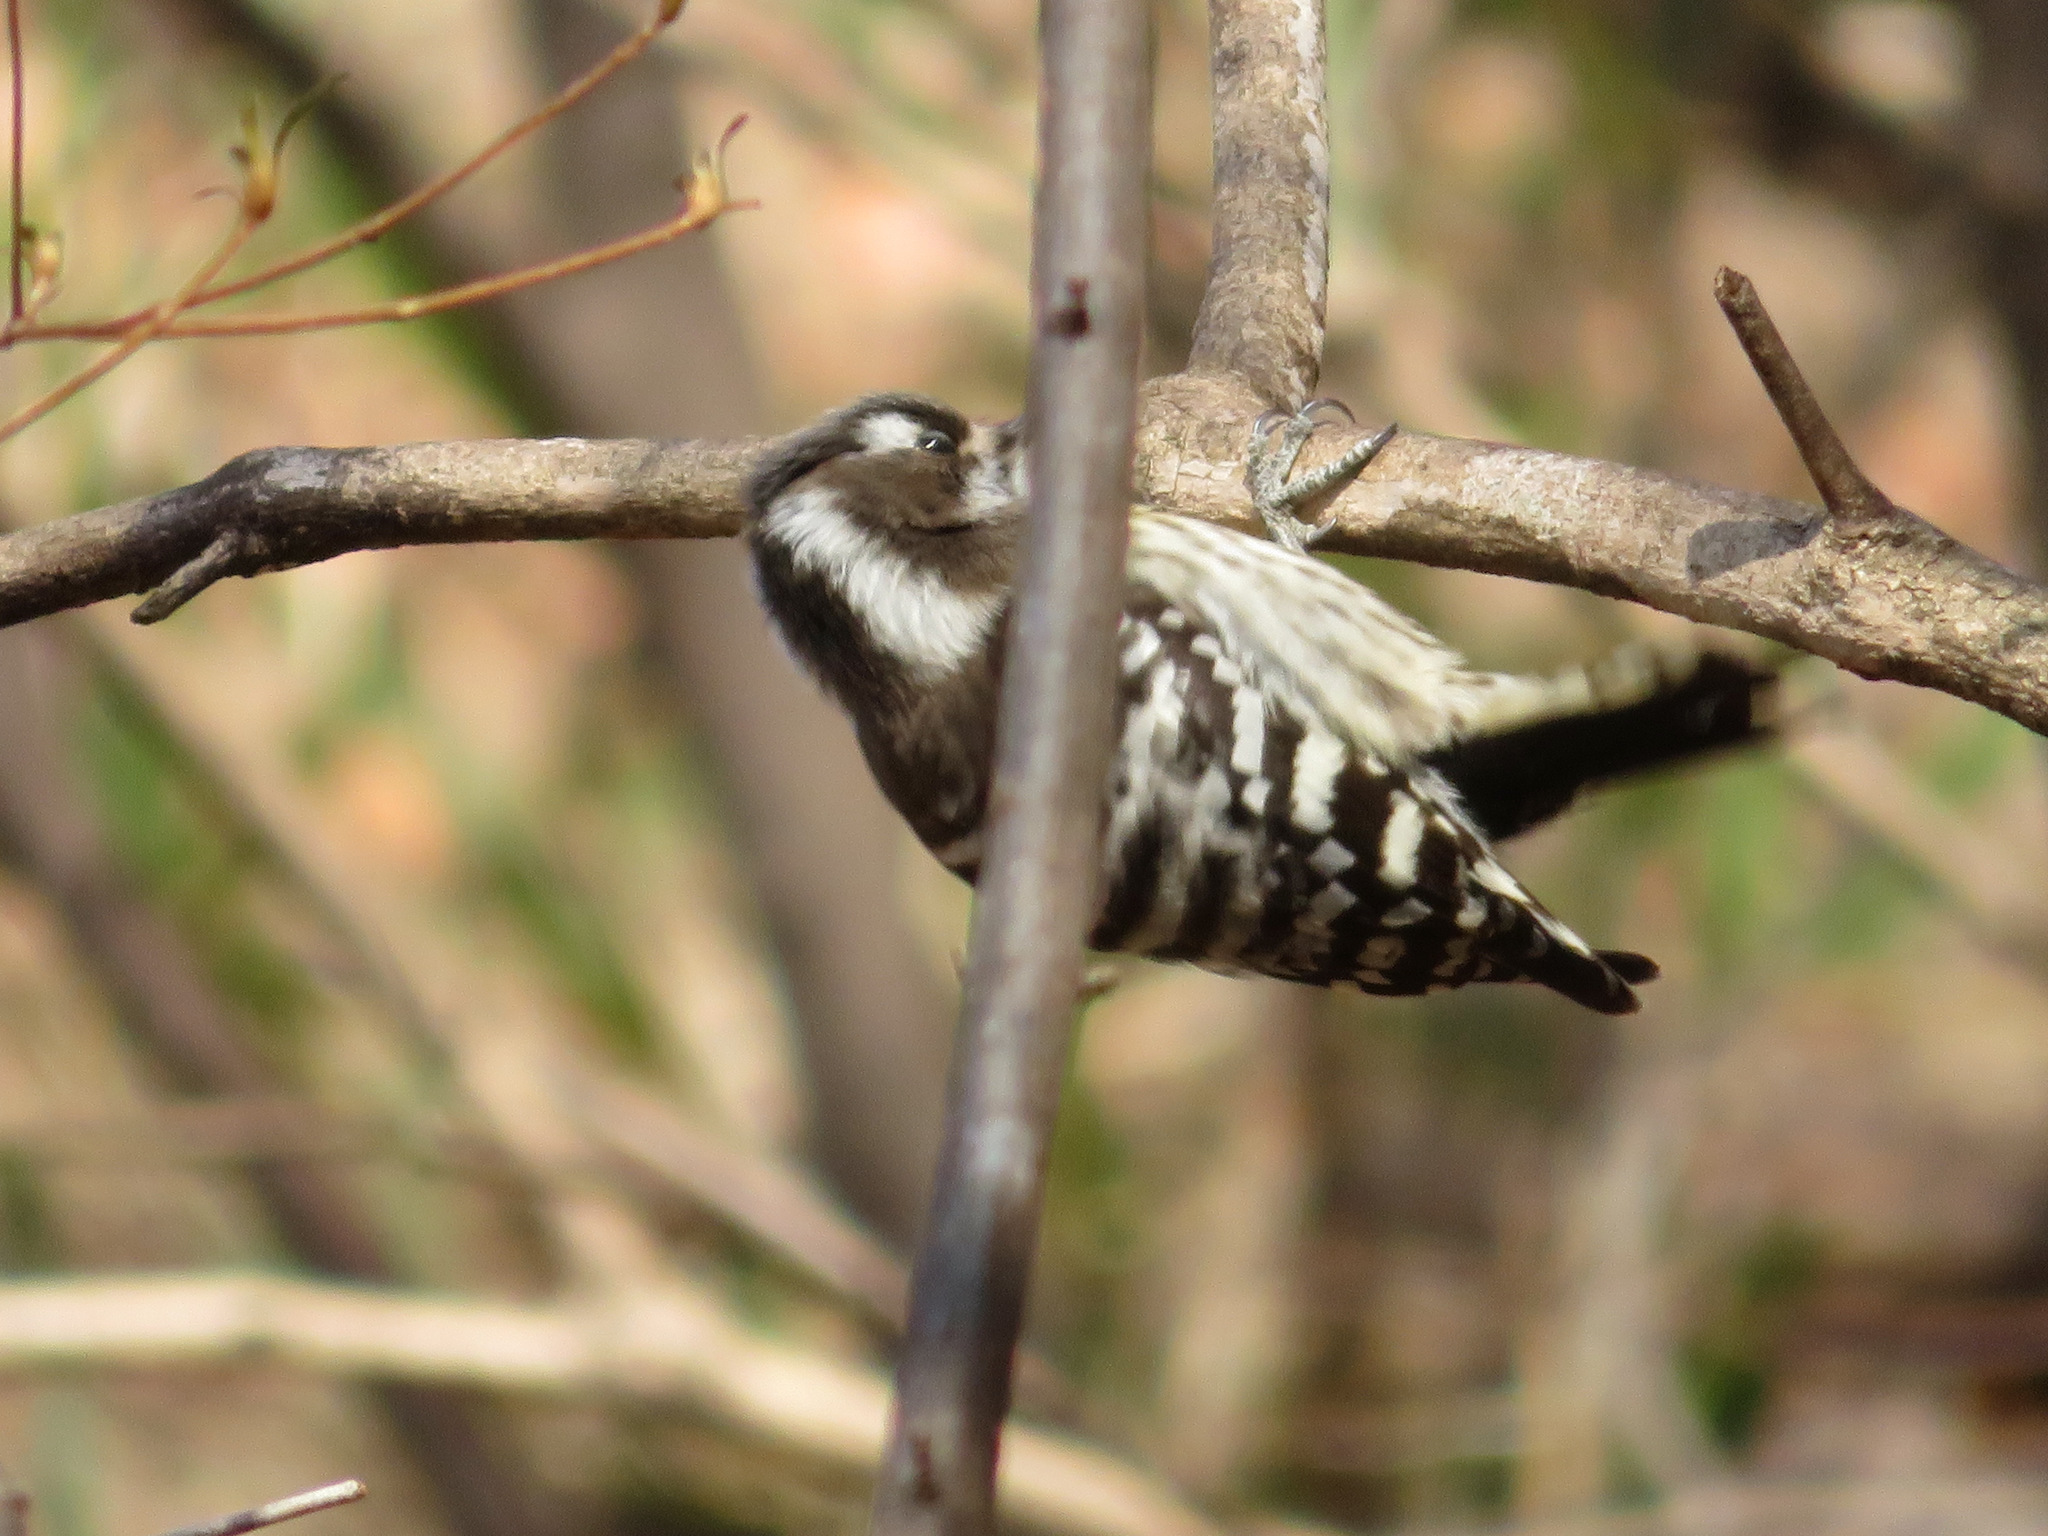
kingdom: Animalia
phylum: Chordata
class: Aves
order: Piciformes
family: Picidae
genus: Yungipicus
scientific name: Yungipicus kizuki
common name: Japanese pygmy woodpecker
